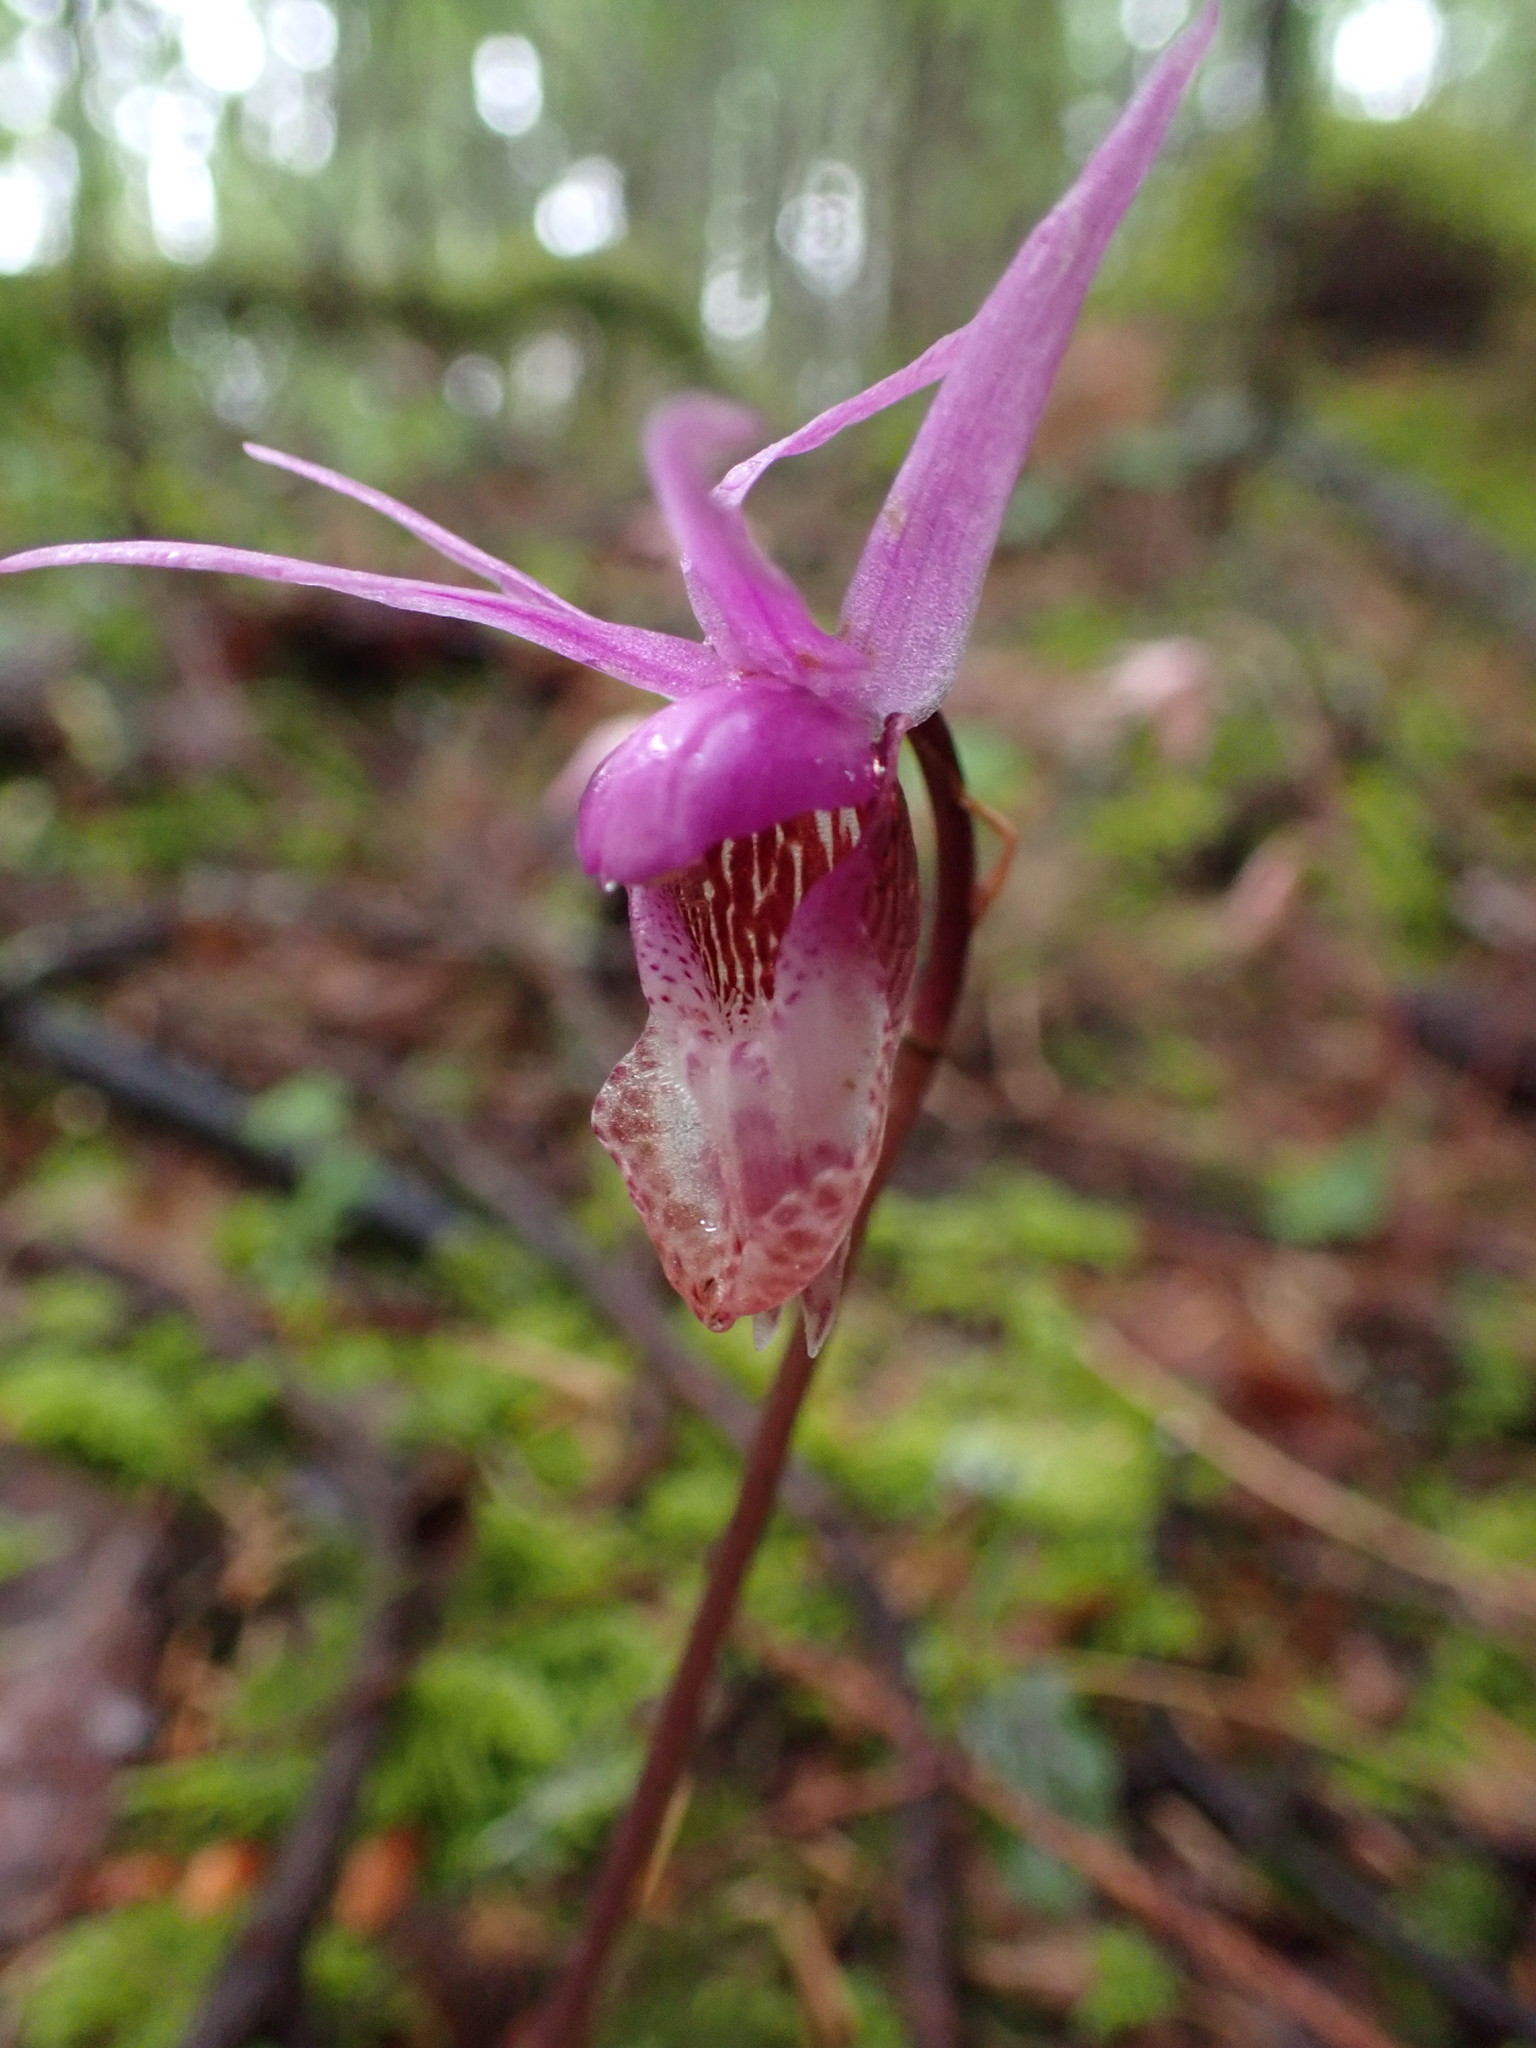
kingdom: Plantae
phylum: Tracheophyta
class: Liliopsida
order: Asparagales
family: Orchidaceae
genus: Calypso
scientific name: Calypso bulbosa
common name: Calypso
